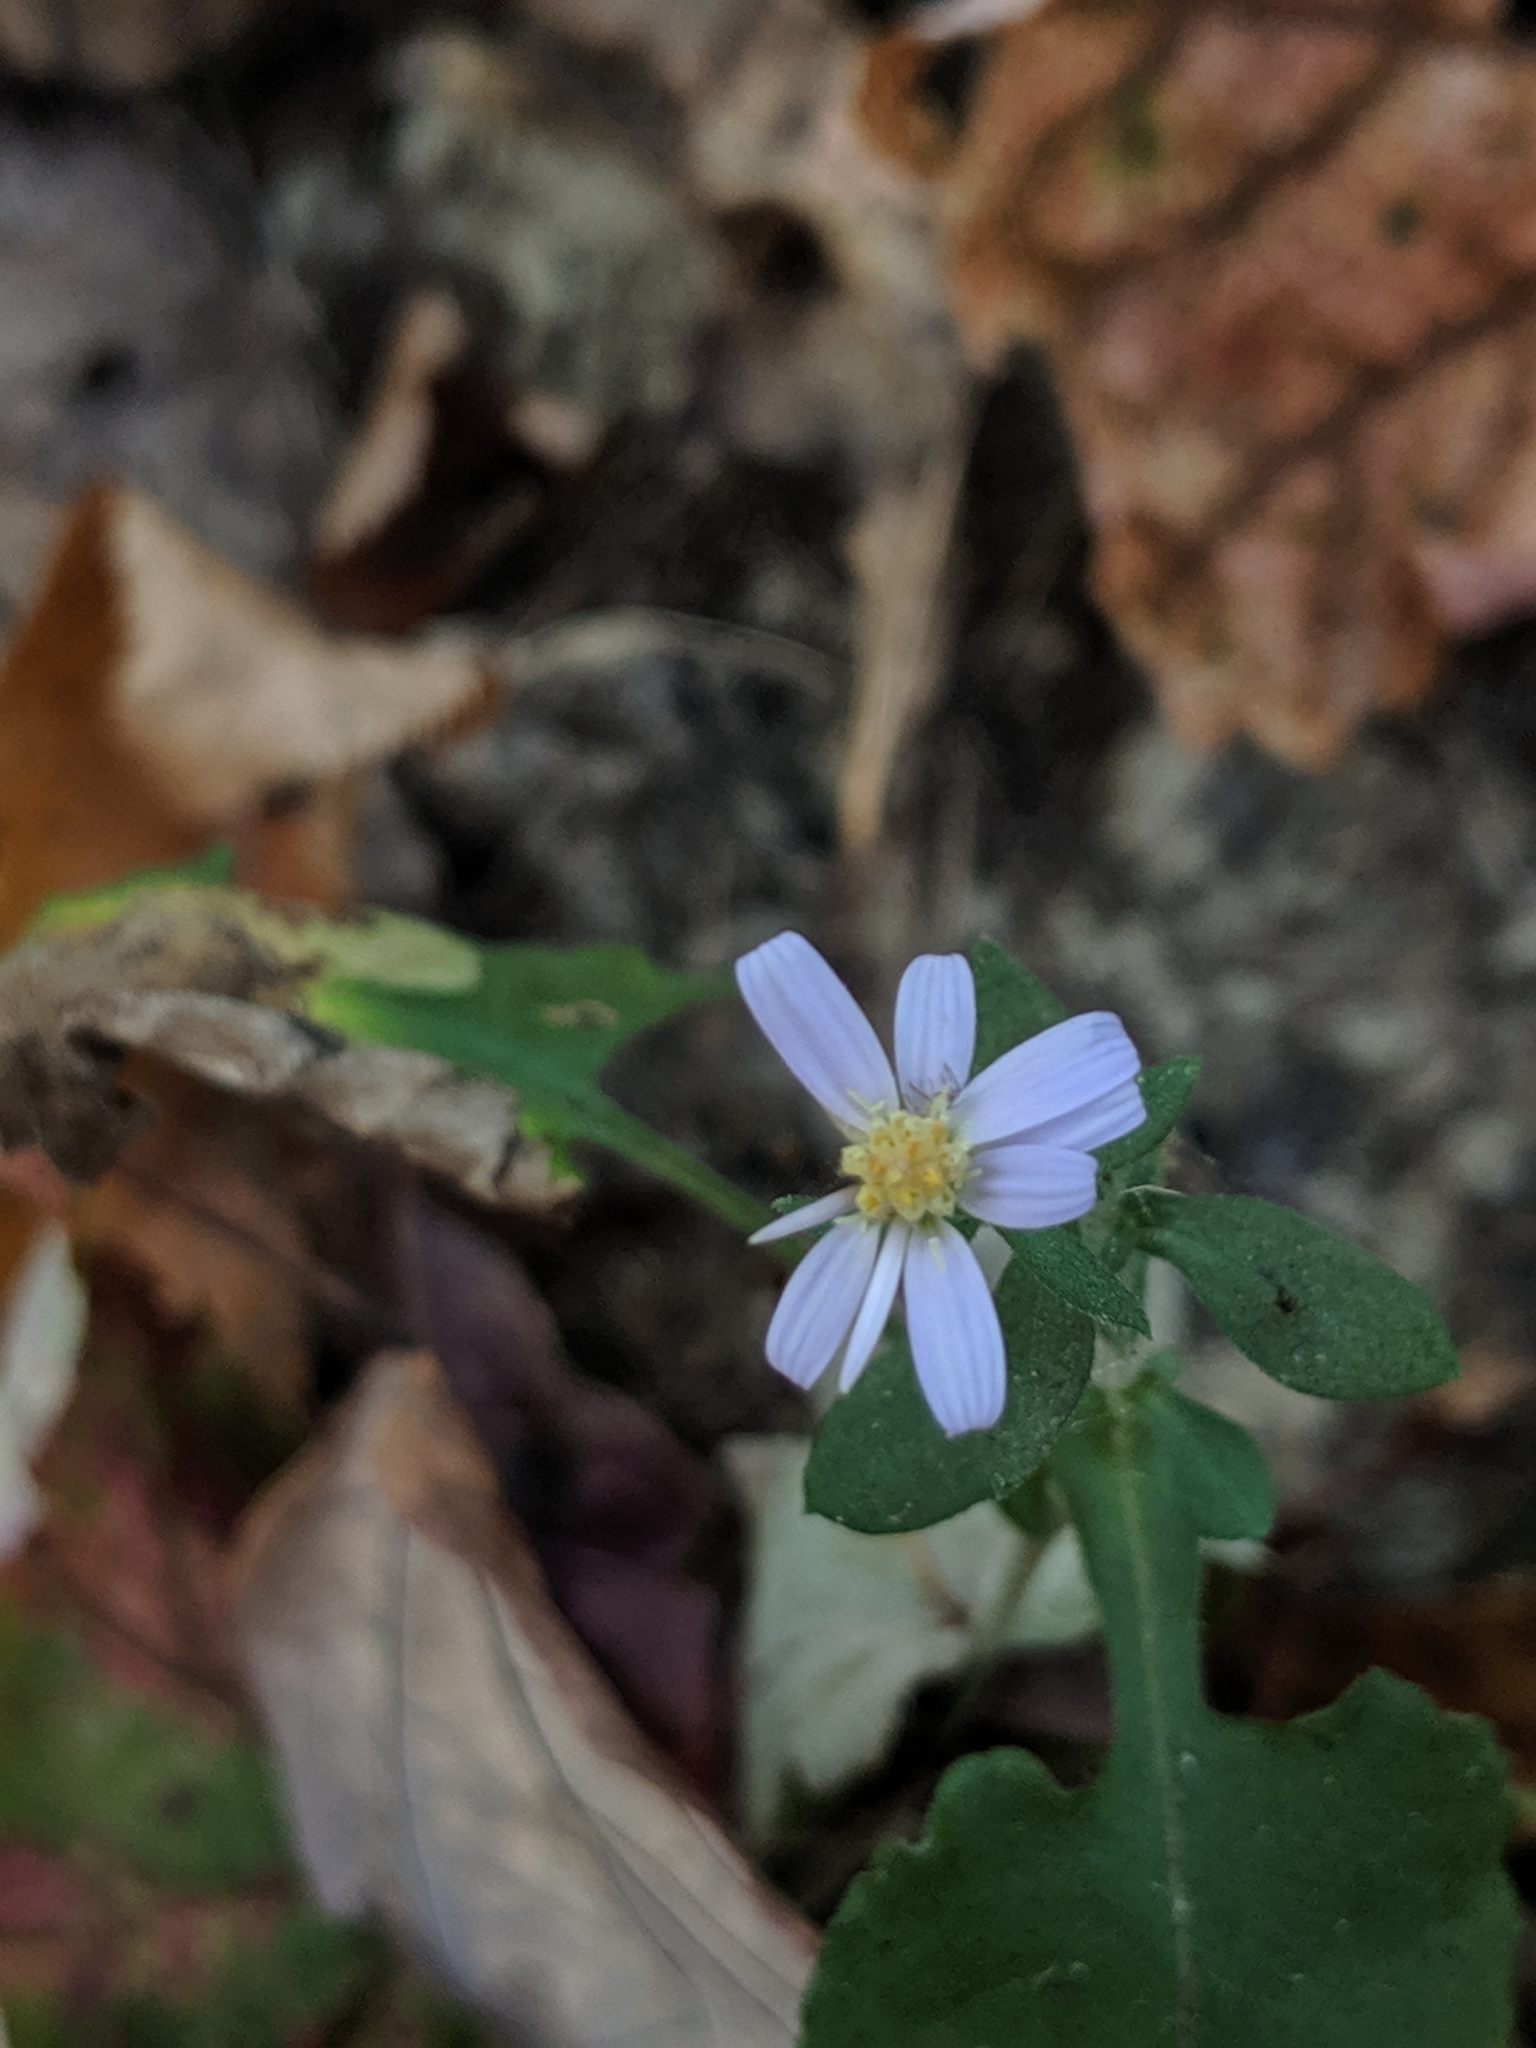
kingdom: Plantae
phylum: Tracheophyta
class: Magnoliopsida
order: Asterales
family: Asteraceae
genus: Symphyotrichum
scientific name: Symphyotrichum undulatum
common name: Clasping heart-leaf aster
